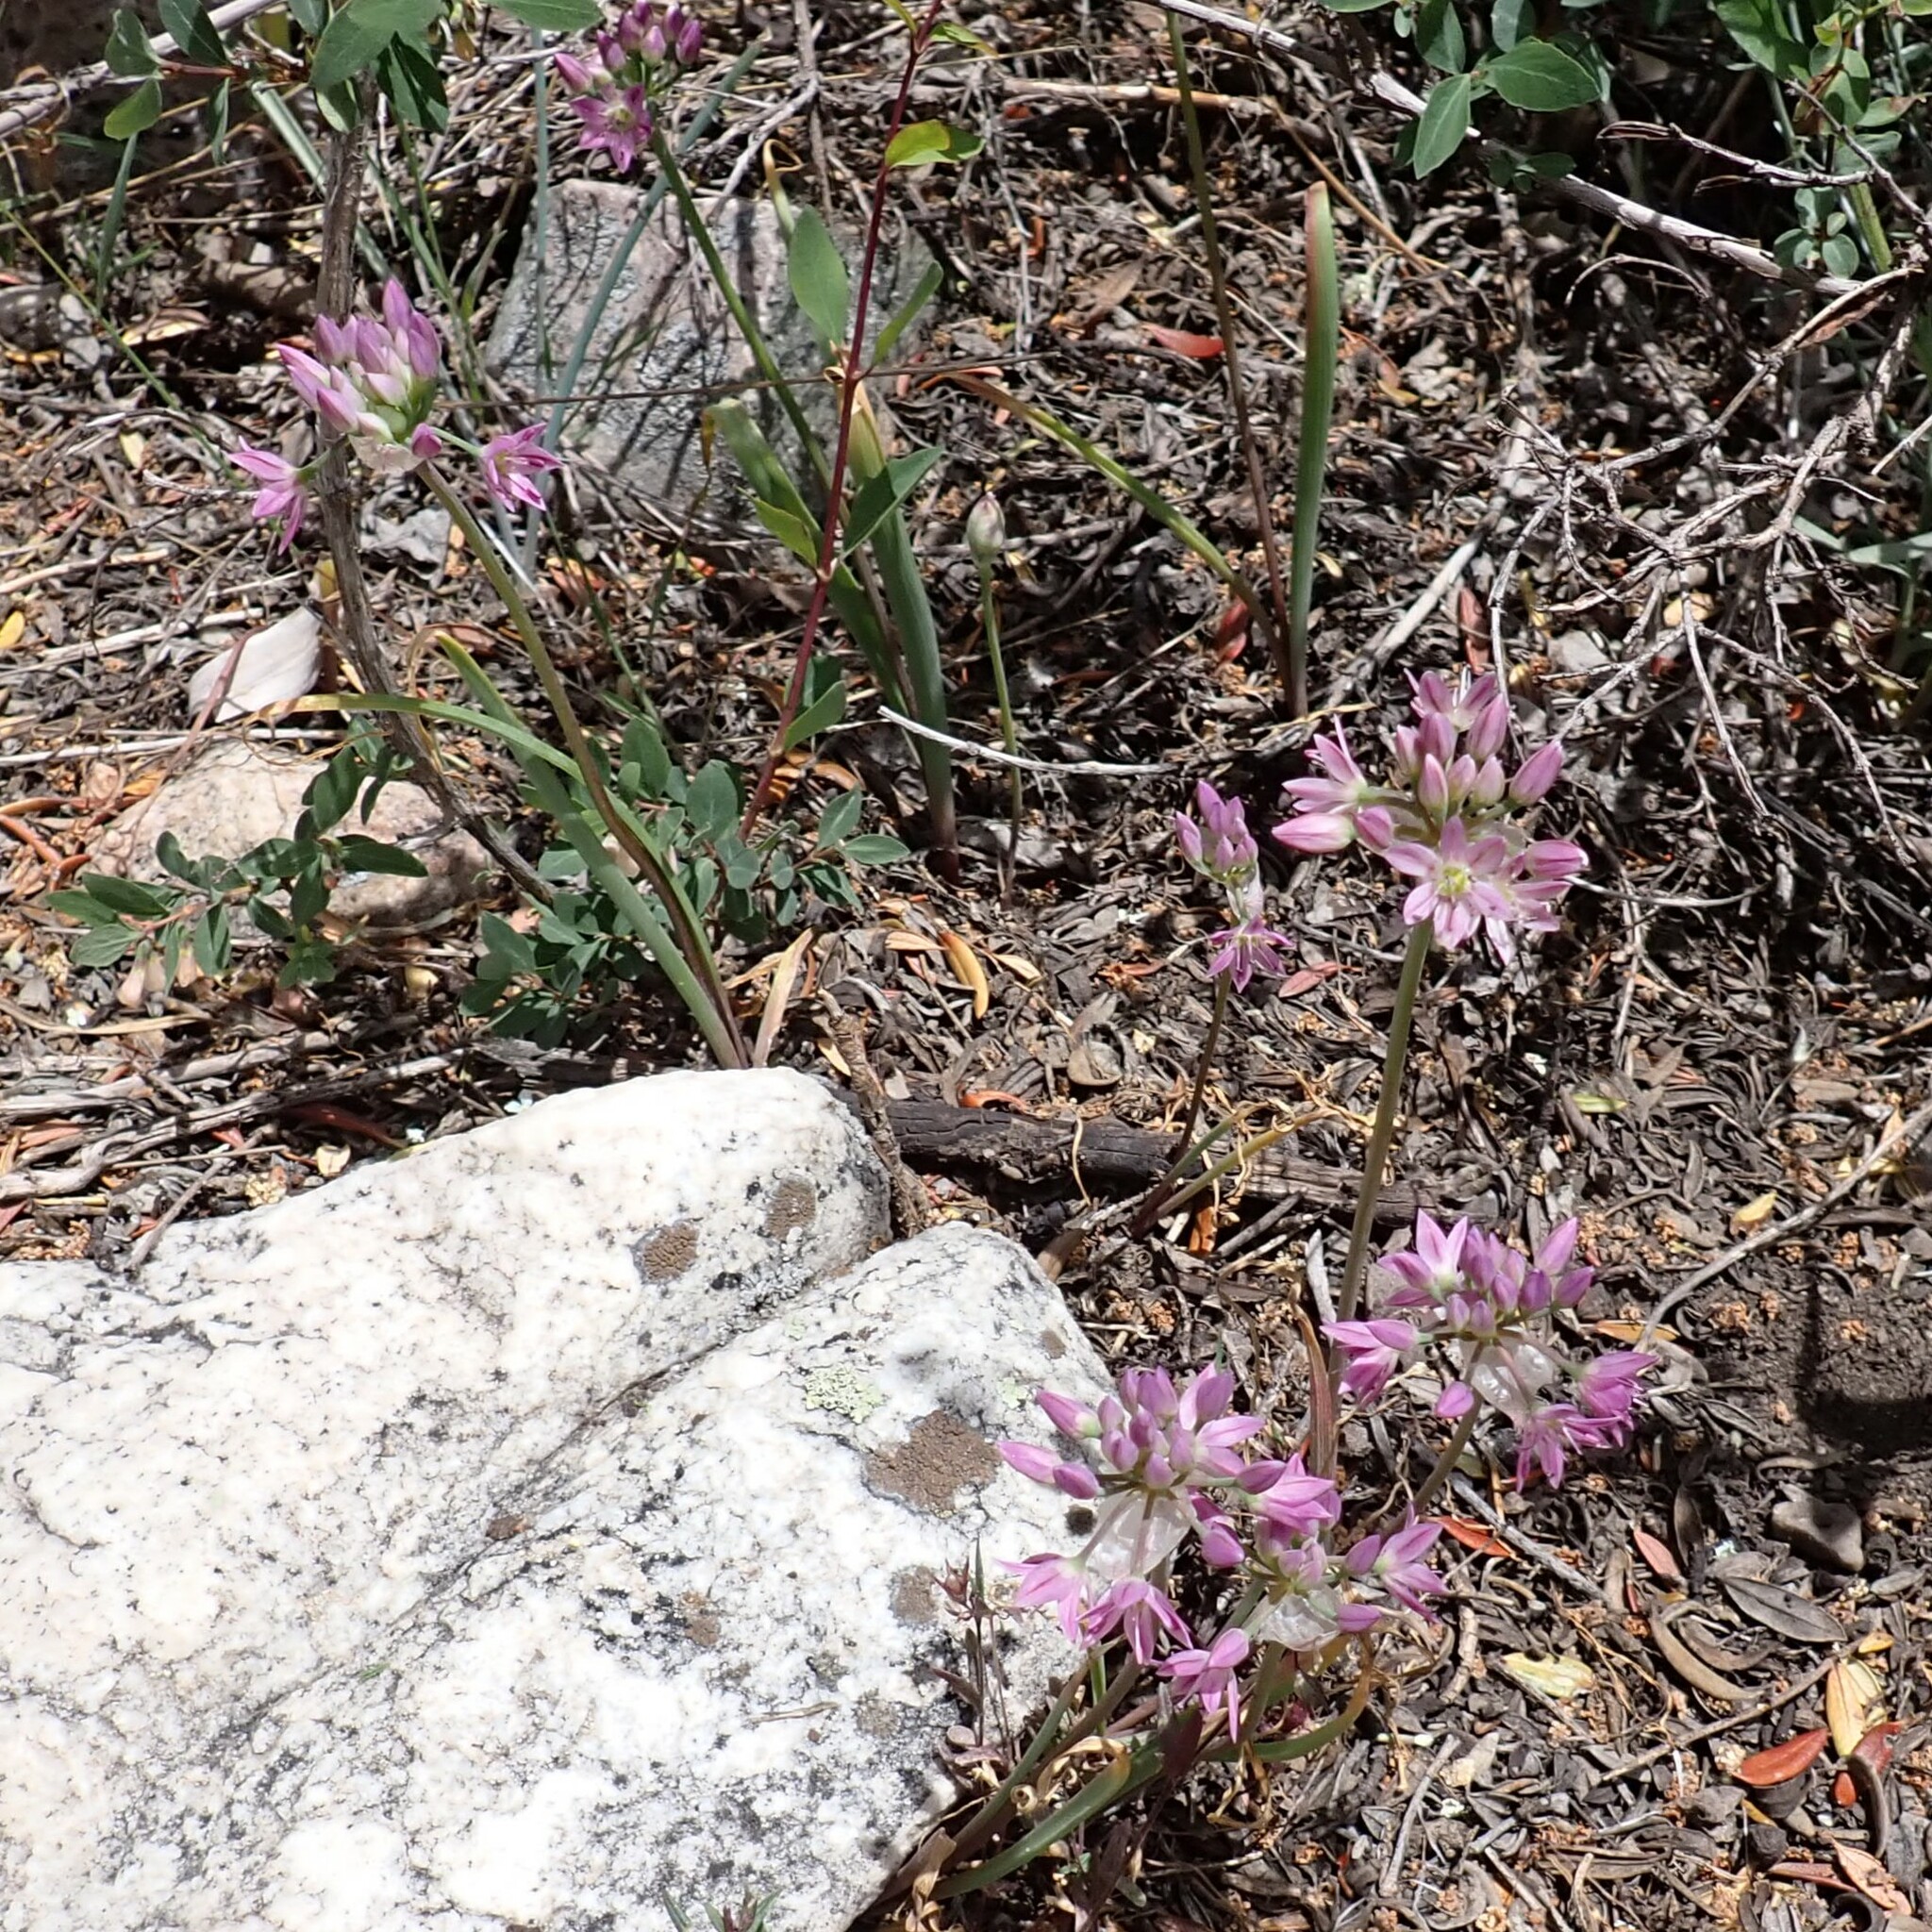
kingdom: Plantae
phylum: Tracheophyta
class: Liliopsida
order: Asparagales
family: Amaryllidaceae
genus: Allium
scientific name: Allium bisceptrum
